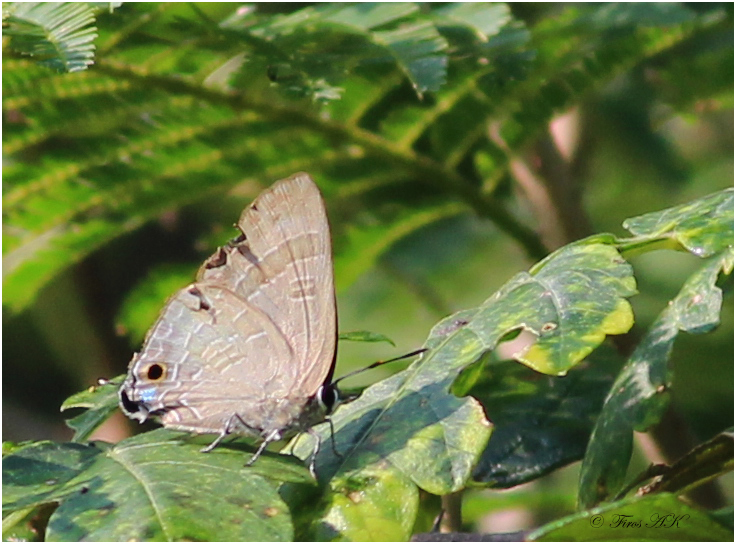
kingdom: Animalia
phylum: Arthropoda
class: Insecta
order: Lepidoptera
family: Lycaenidae
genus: Deudorix
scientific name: Deudorix epijarbas
